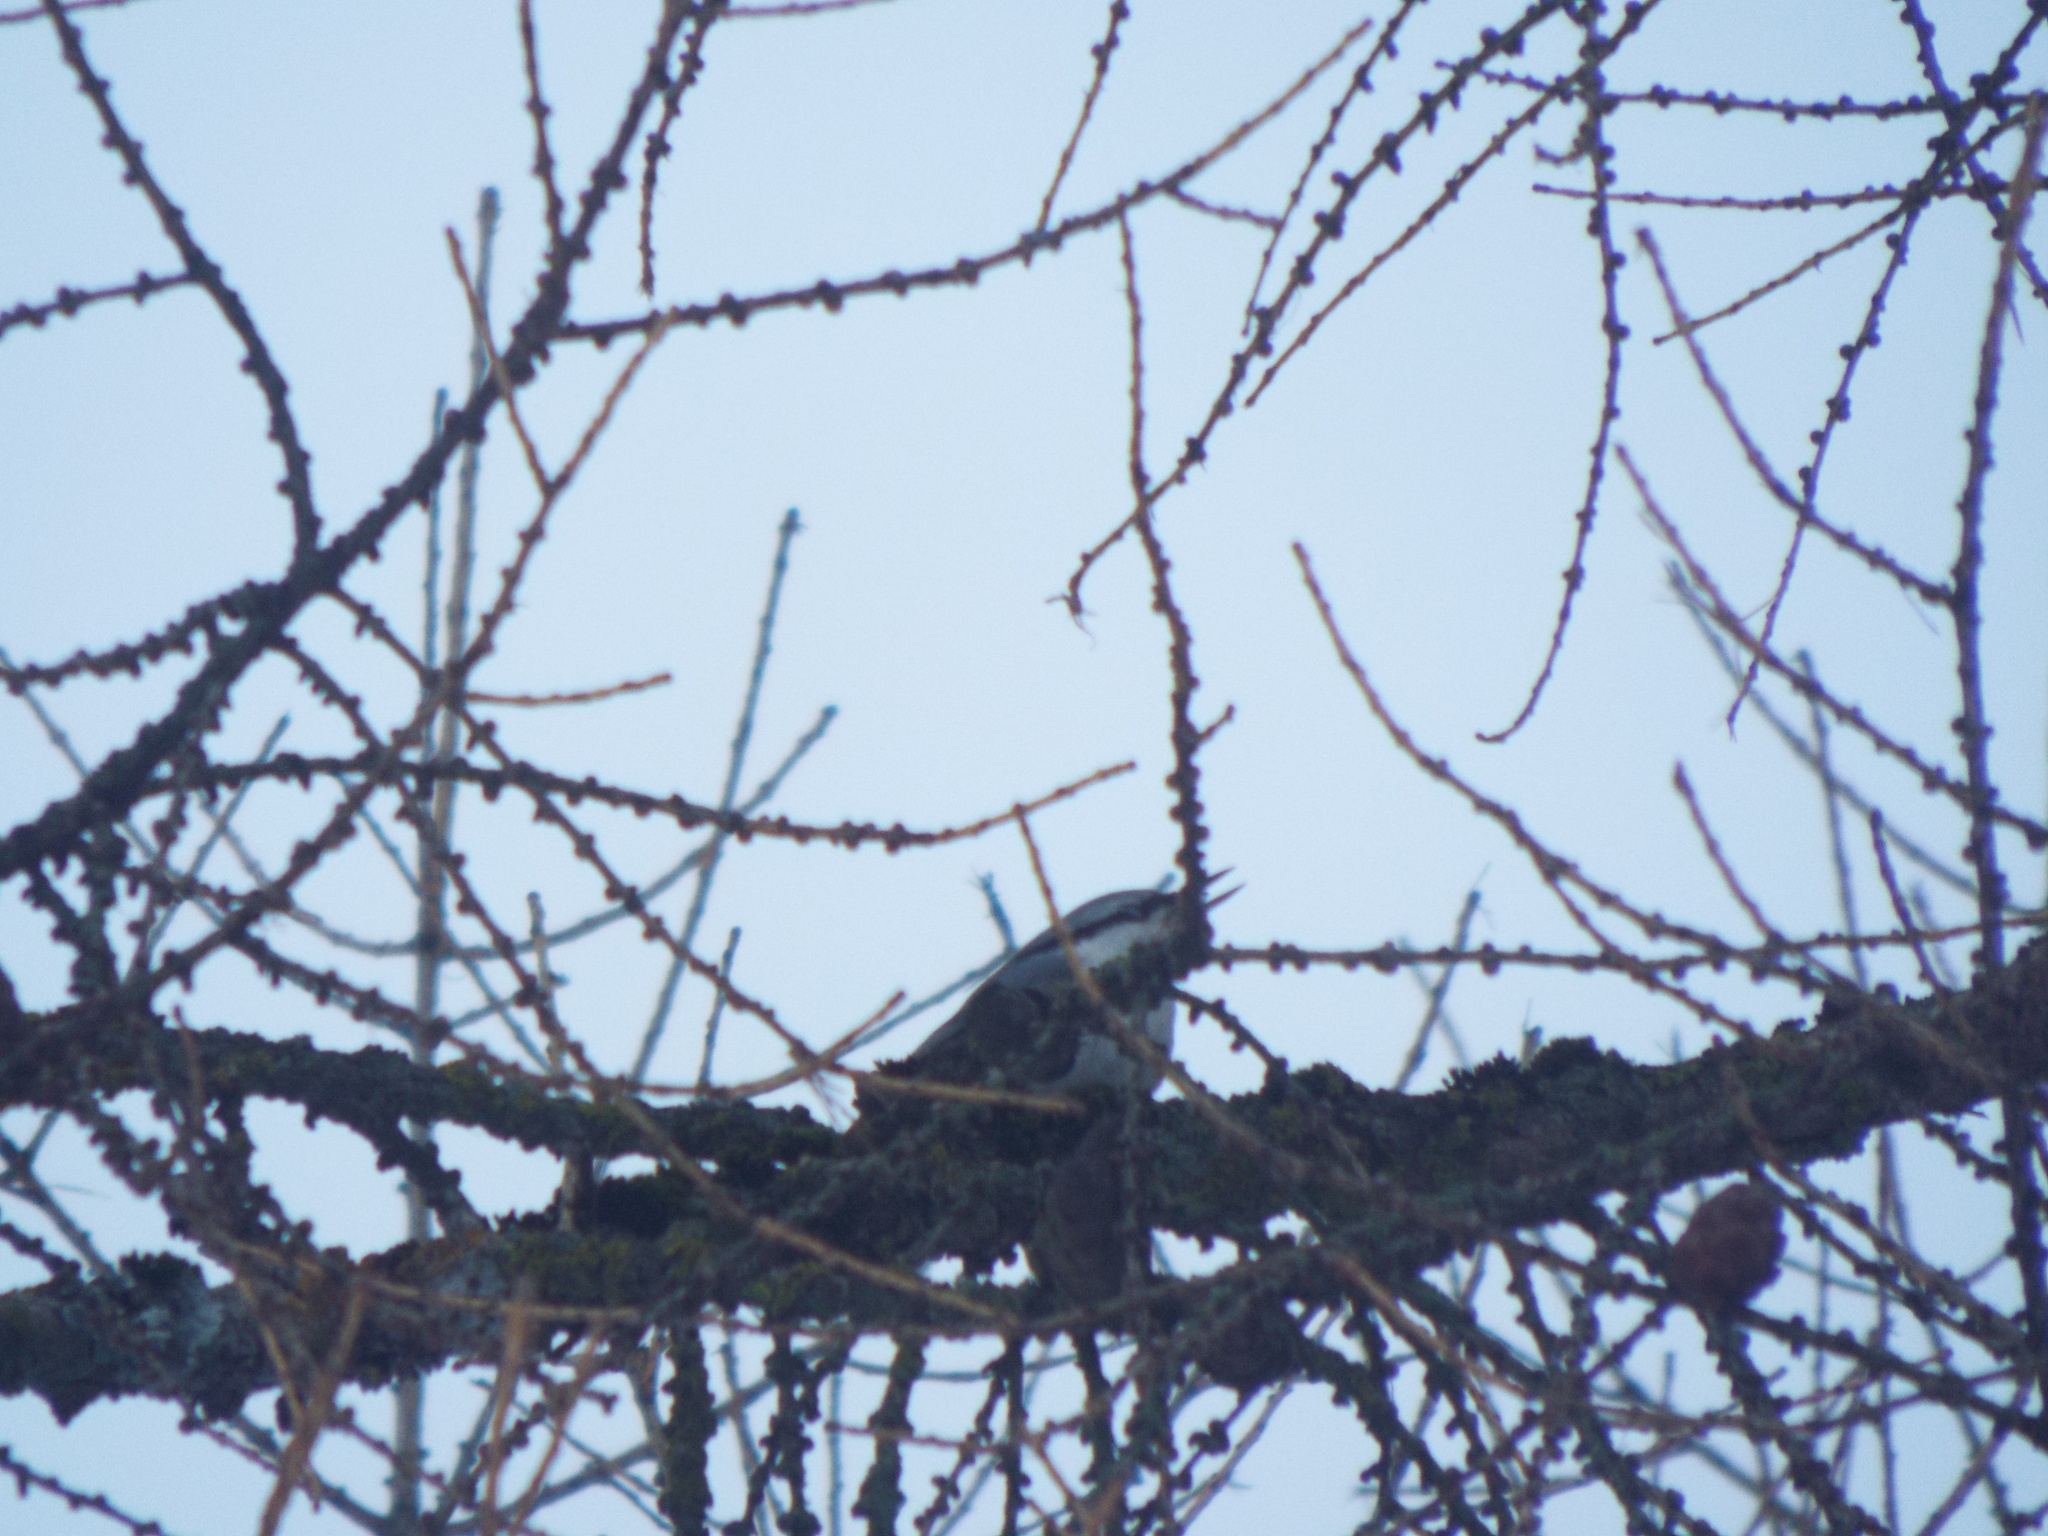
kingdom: Animalia
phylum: Chordata
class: Aves
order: Passeriformes
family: Sittidae
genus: Sitta
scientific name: Sitta europaea
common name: Eurasian nuthatch
